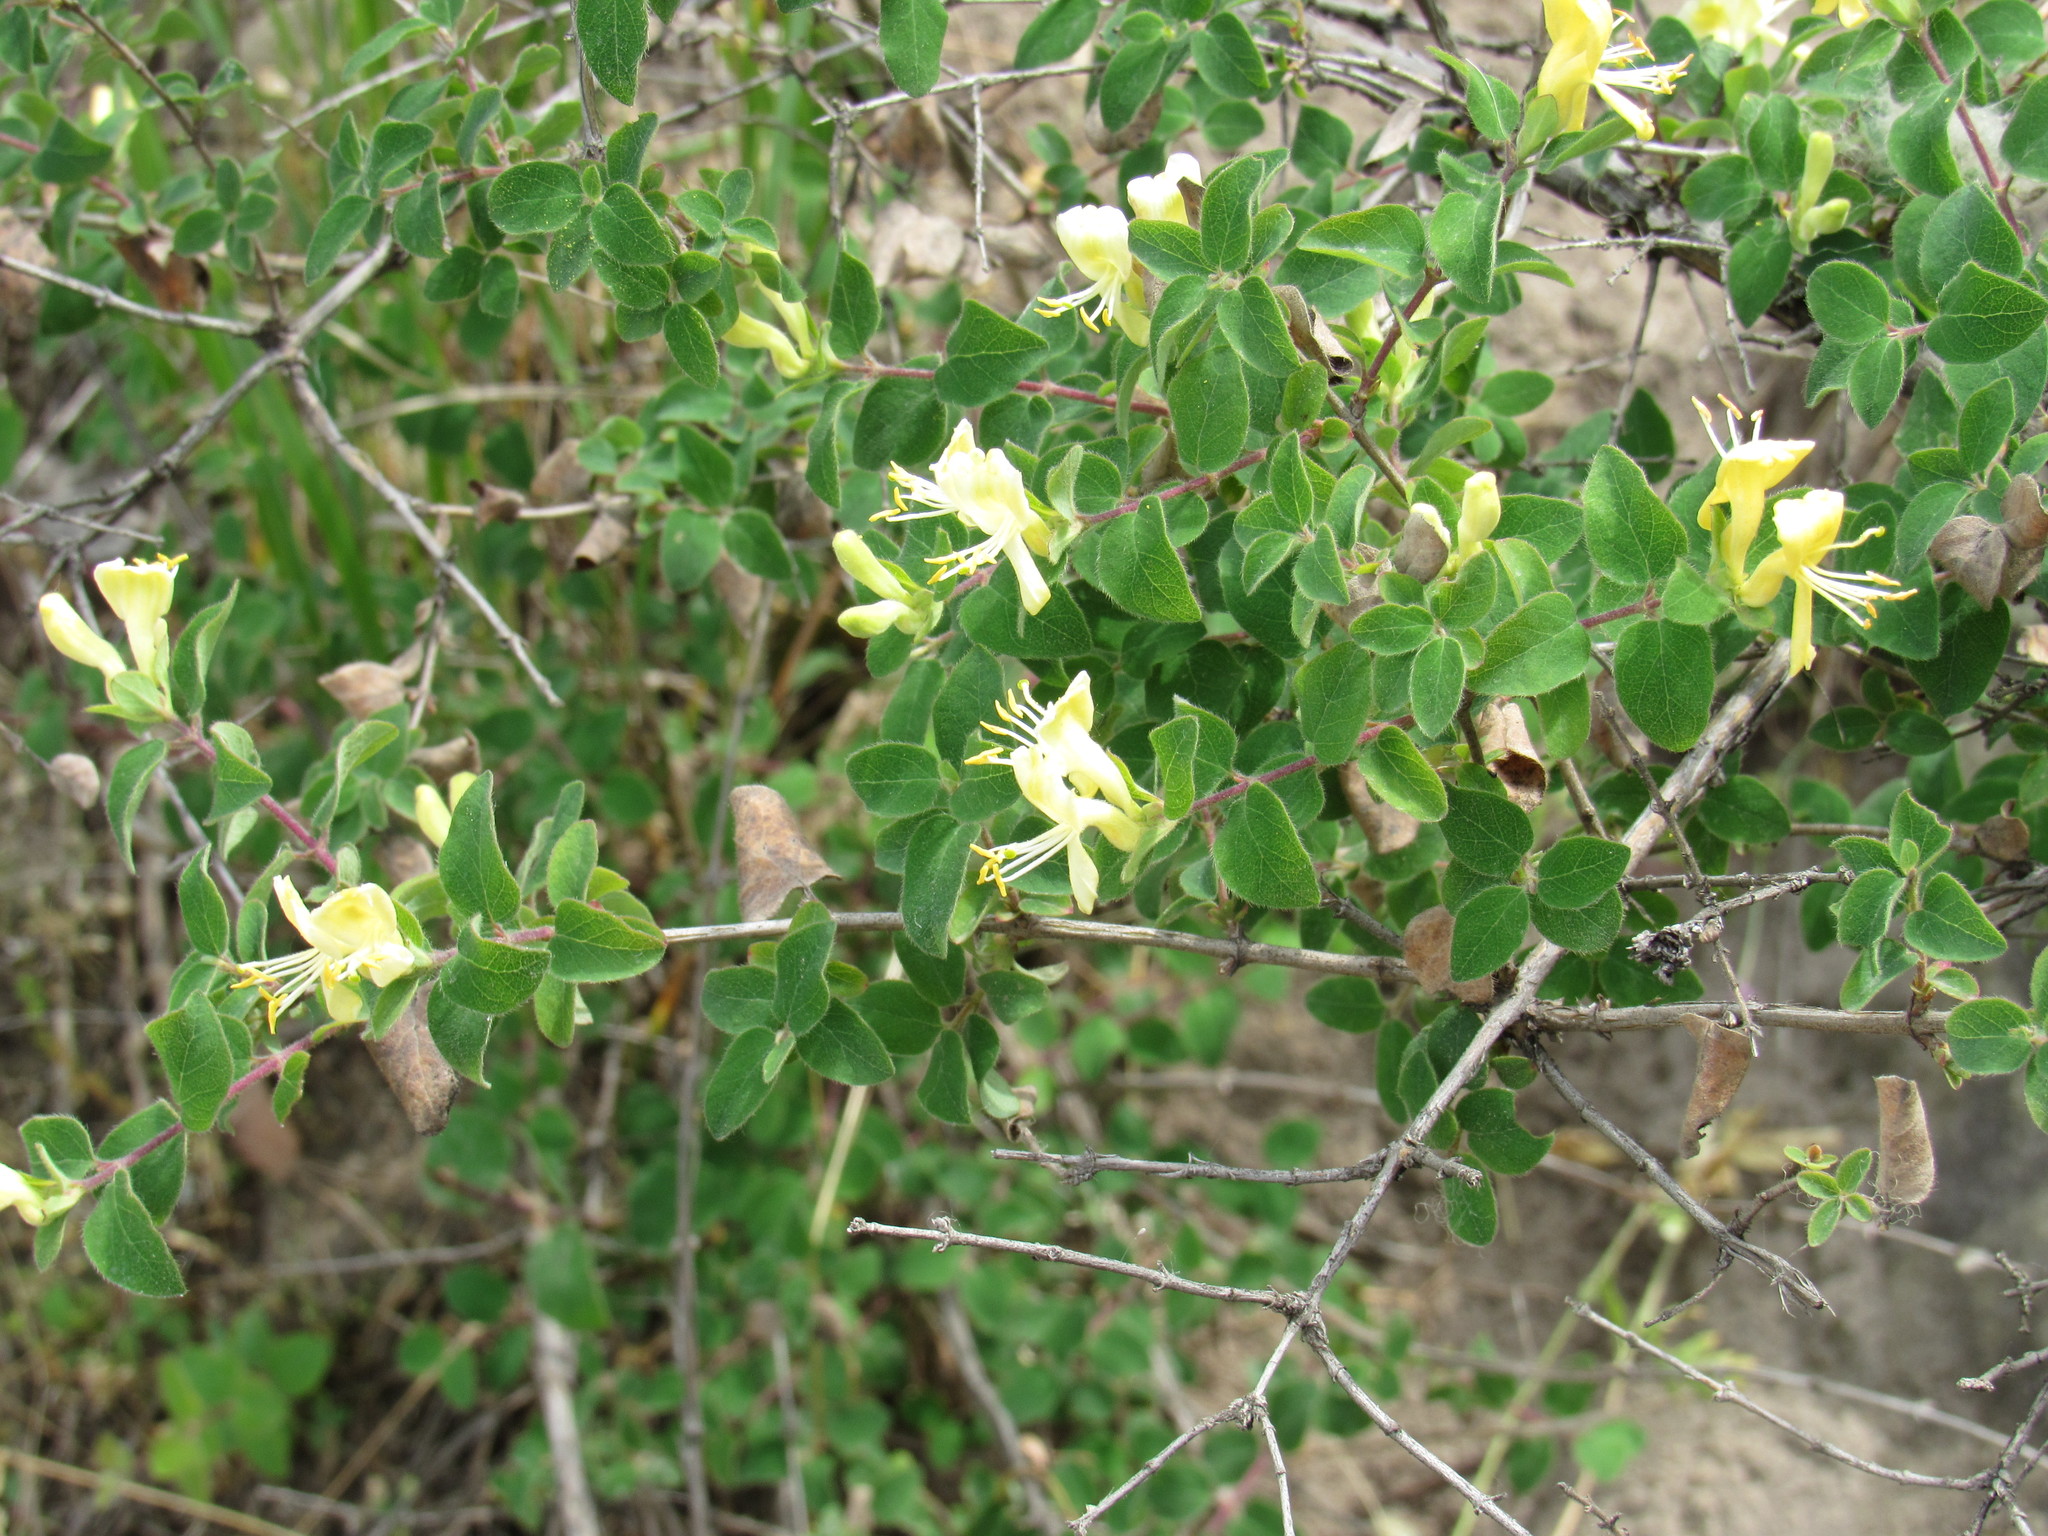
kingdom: Plantae
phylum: Tracheophyta
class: Magnoliopsida
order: Dipsacales
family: Caprifoliaceae
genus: Lonicera
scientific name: Lonicera iberica
